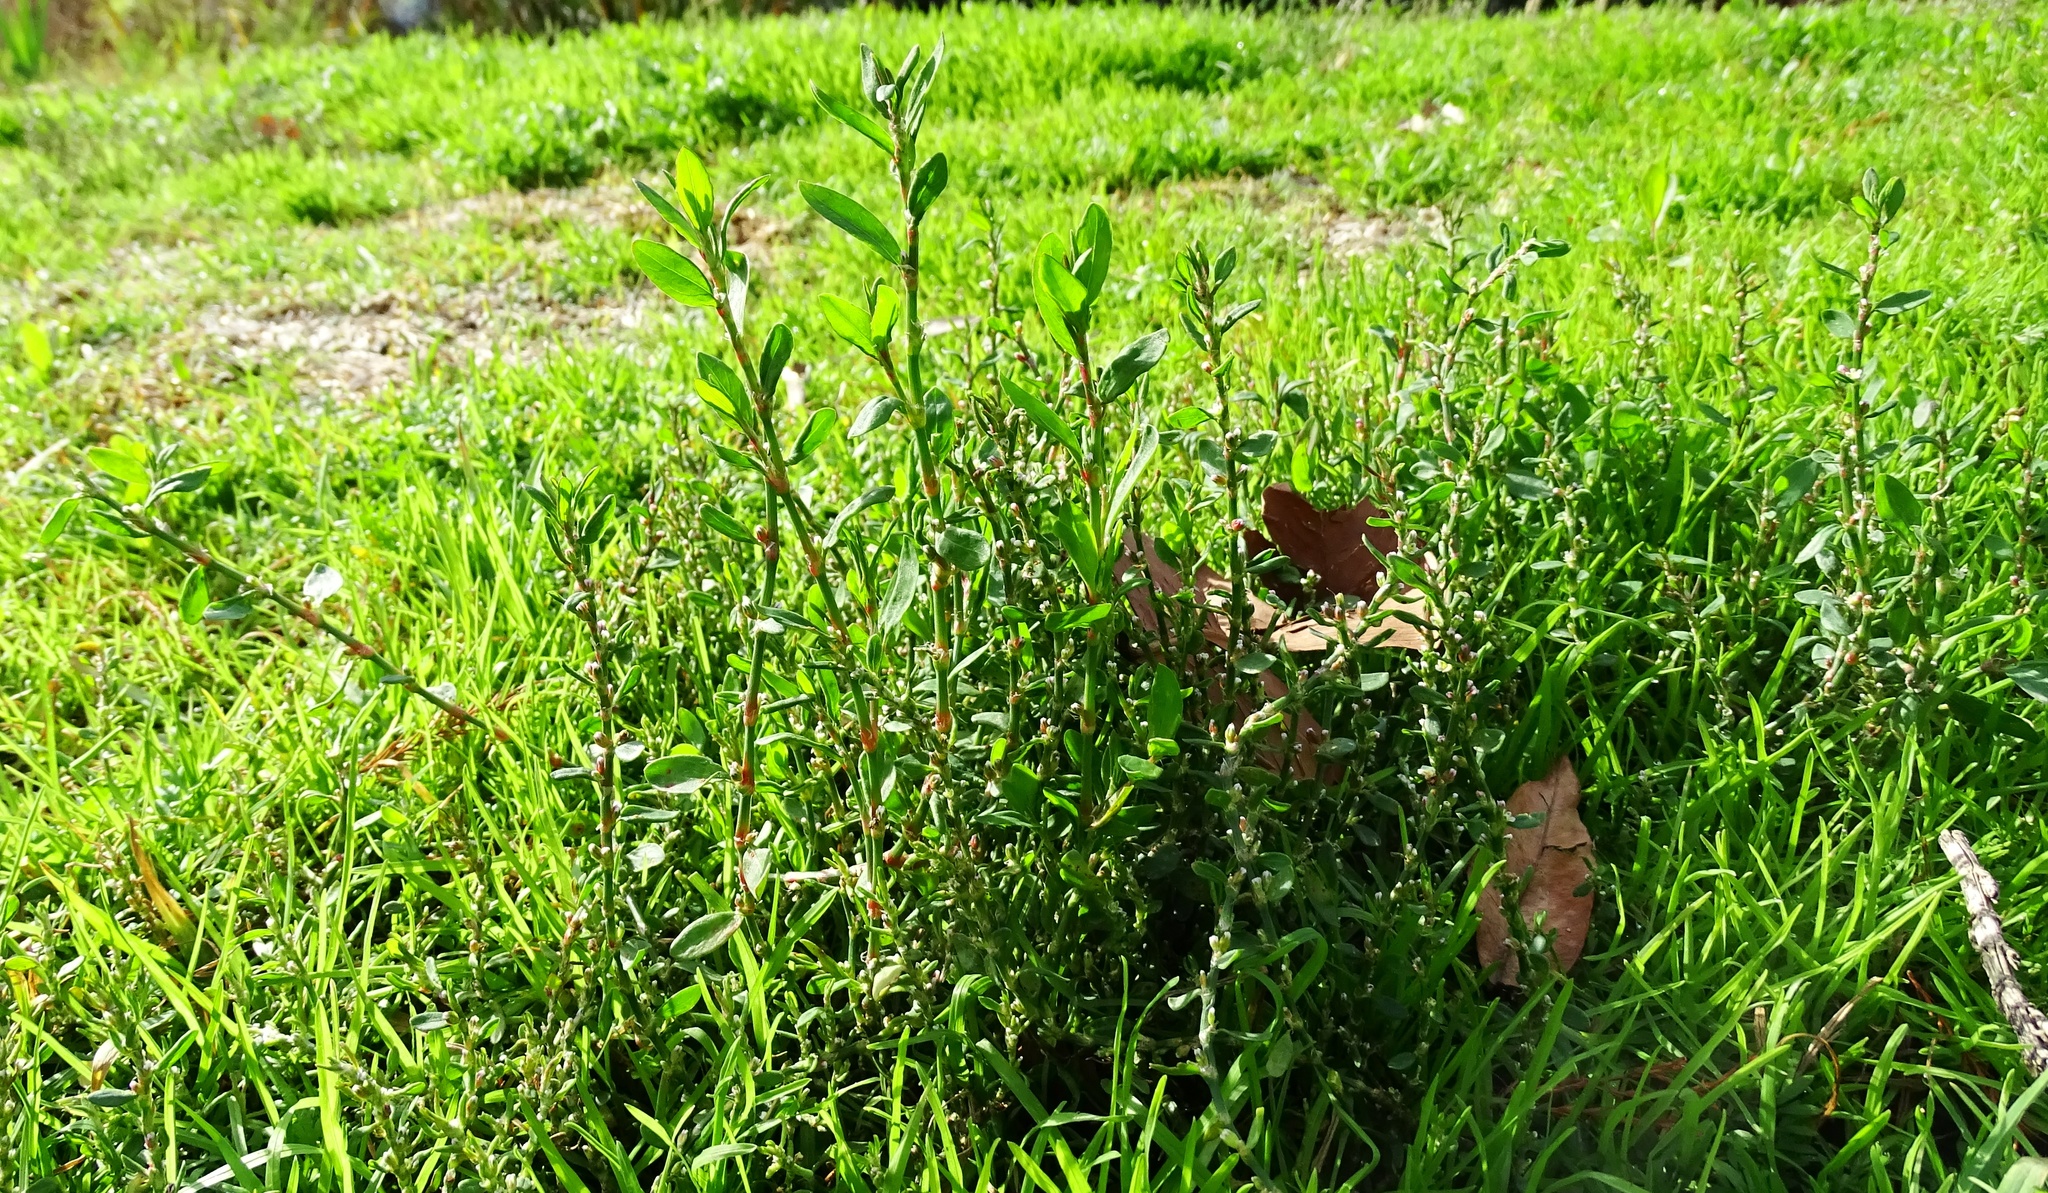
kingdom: Plantae
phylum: Tracheophyta
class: Magnoliopsida
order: Caryophyllales
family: Polygonaceae
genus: Polygonum
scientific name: Polygonum aviculare
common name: Prostrate knotweed
